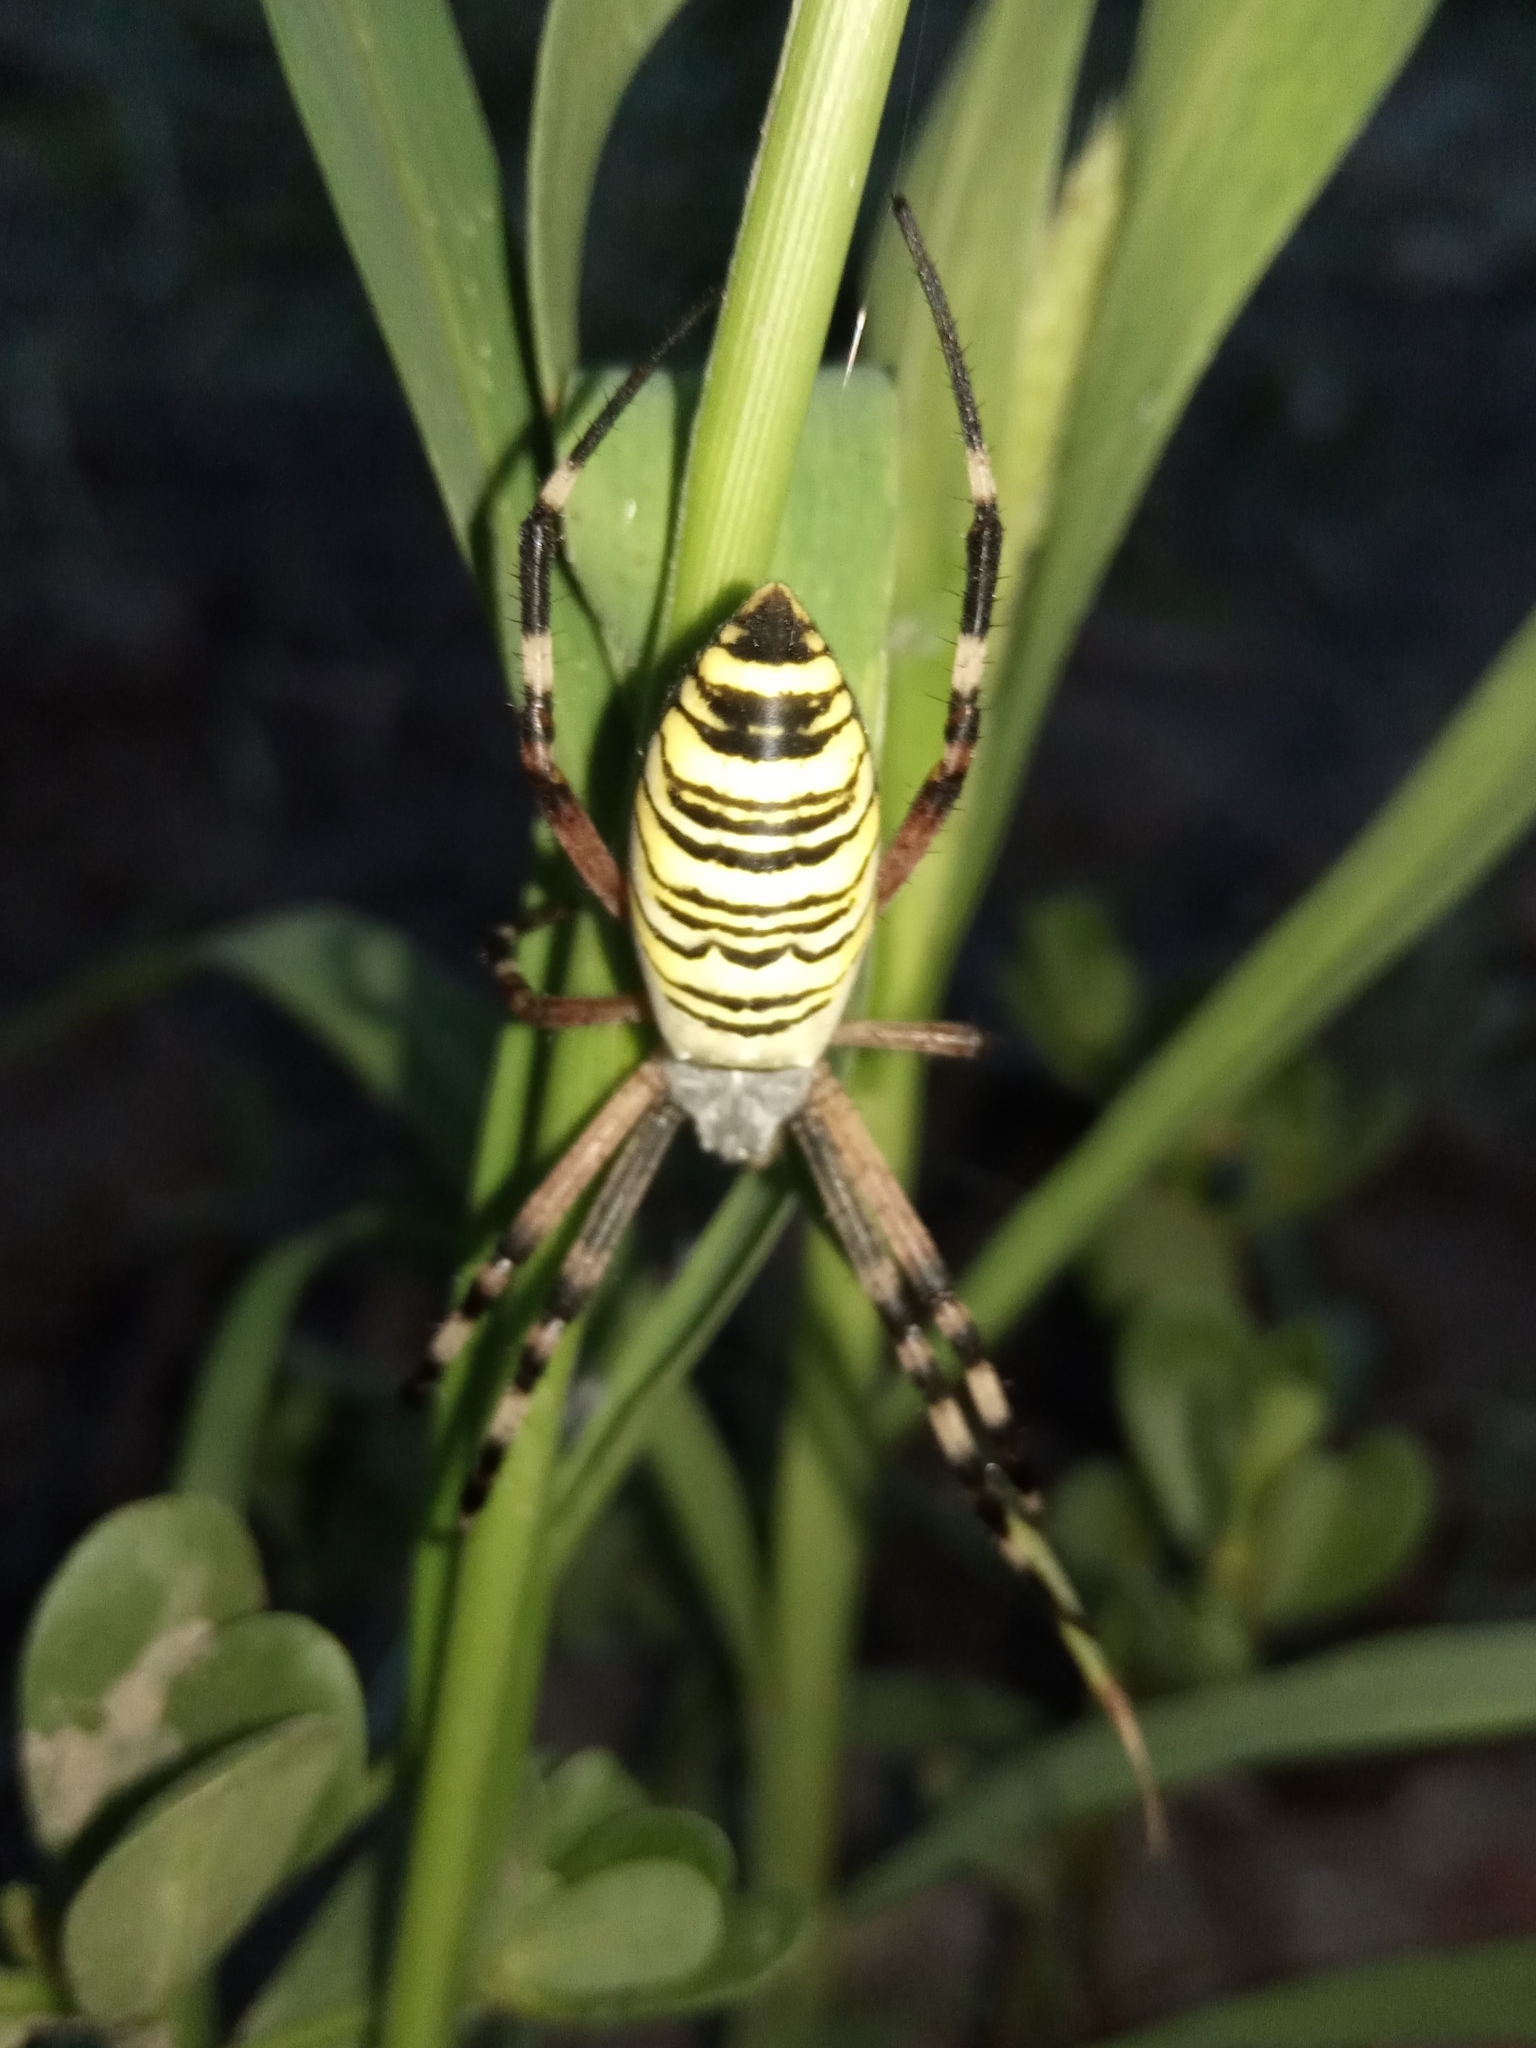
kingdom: Animalia
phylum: Arthropoda
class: Arachnida
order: Araneae
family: Araneidae
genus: Argiope
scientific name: Argiope bruennichi
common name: Wasp spider
